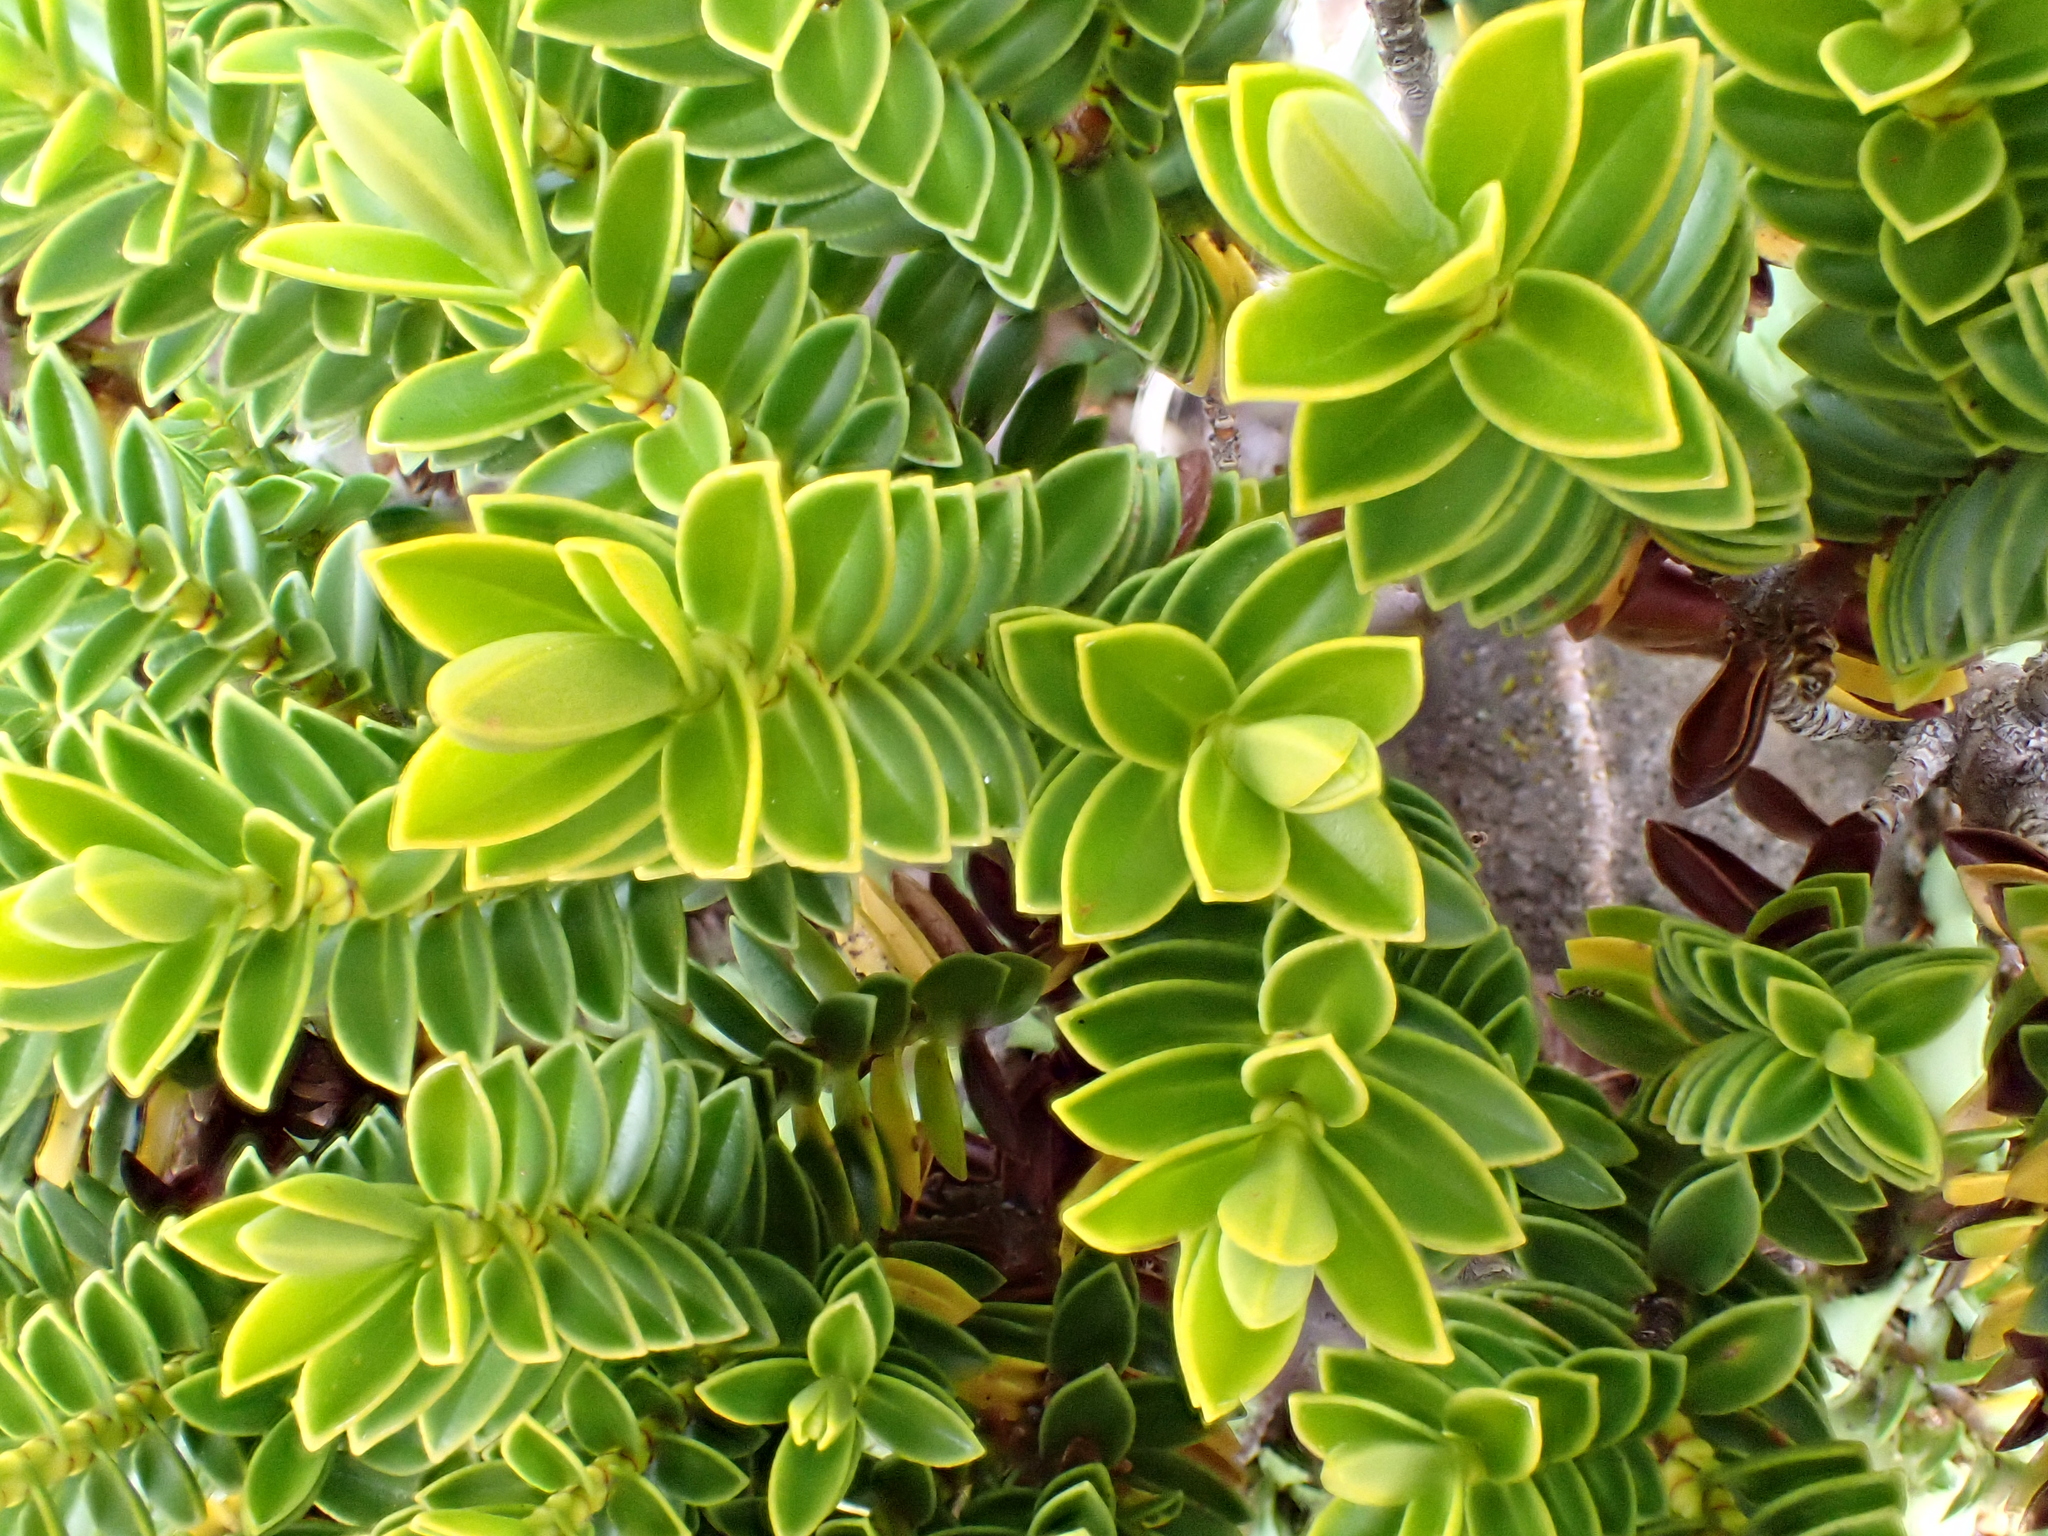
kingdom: Plantae
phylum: Tracheophyta
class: Magnoliopsida
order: Lamiales
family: Plantaginaceae
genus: Veronica
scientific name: Veronica odora
